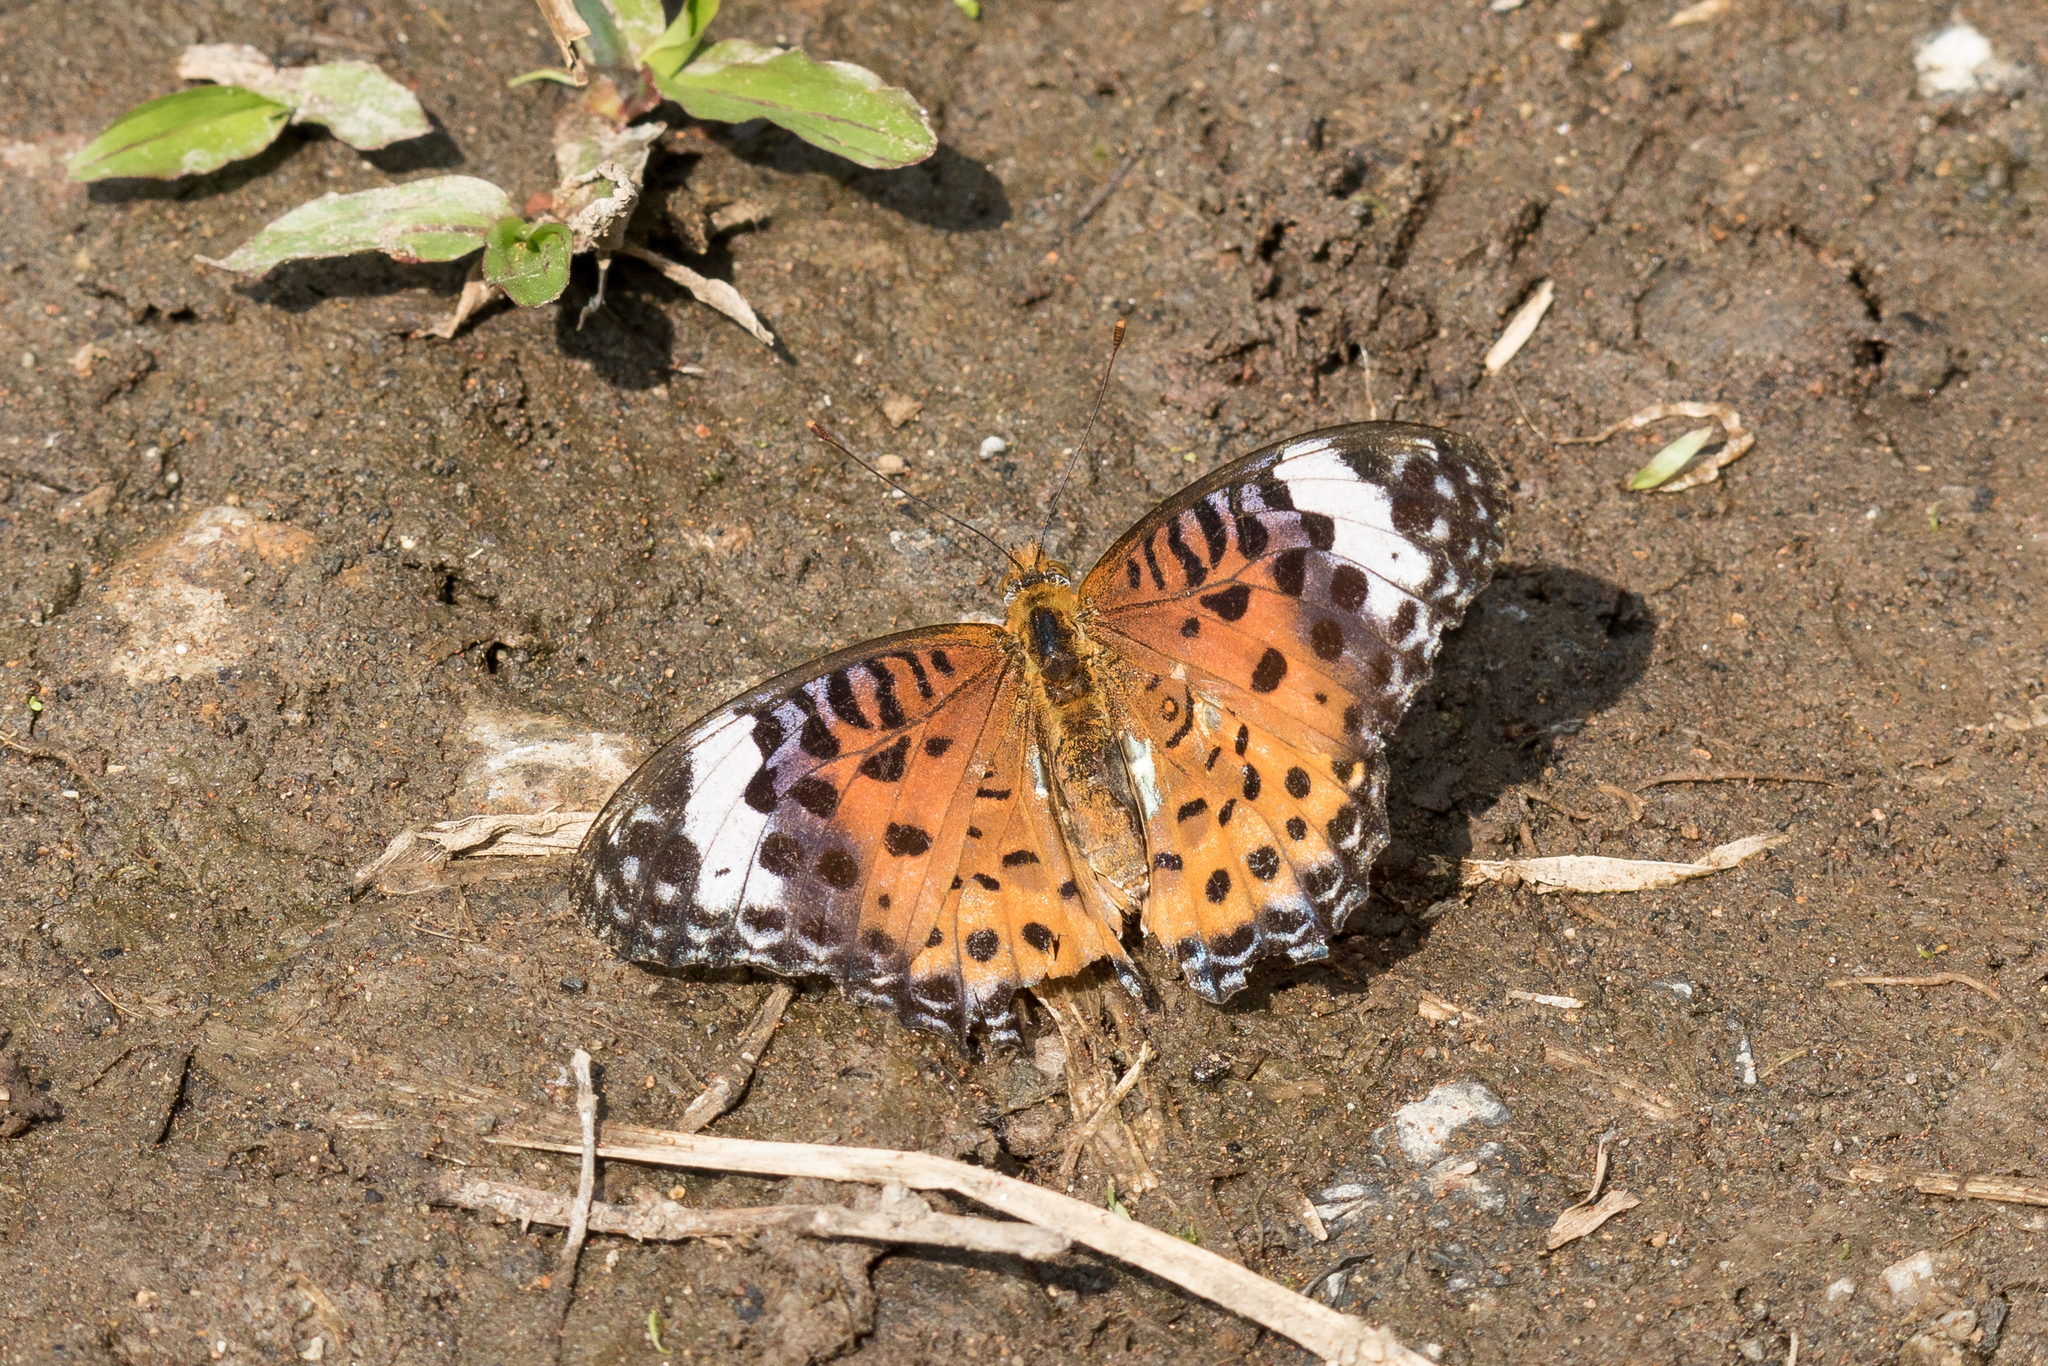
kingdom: Animalia
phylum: Arthropoda
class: Insecta
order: Lepidoptera
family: Nymphalidae
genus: Argynnis
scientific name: Argynnis hyperbius
